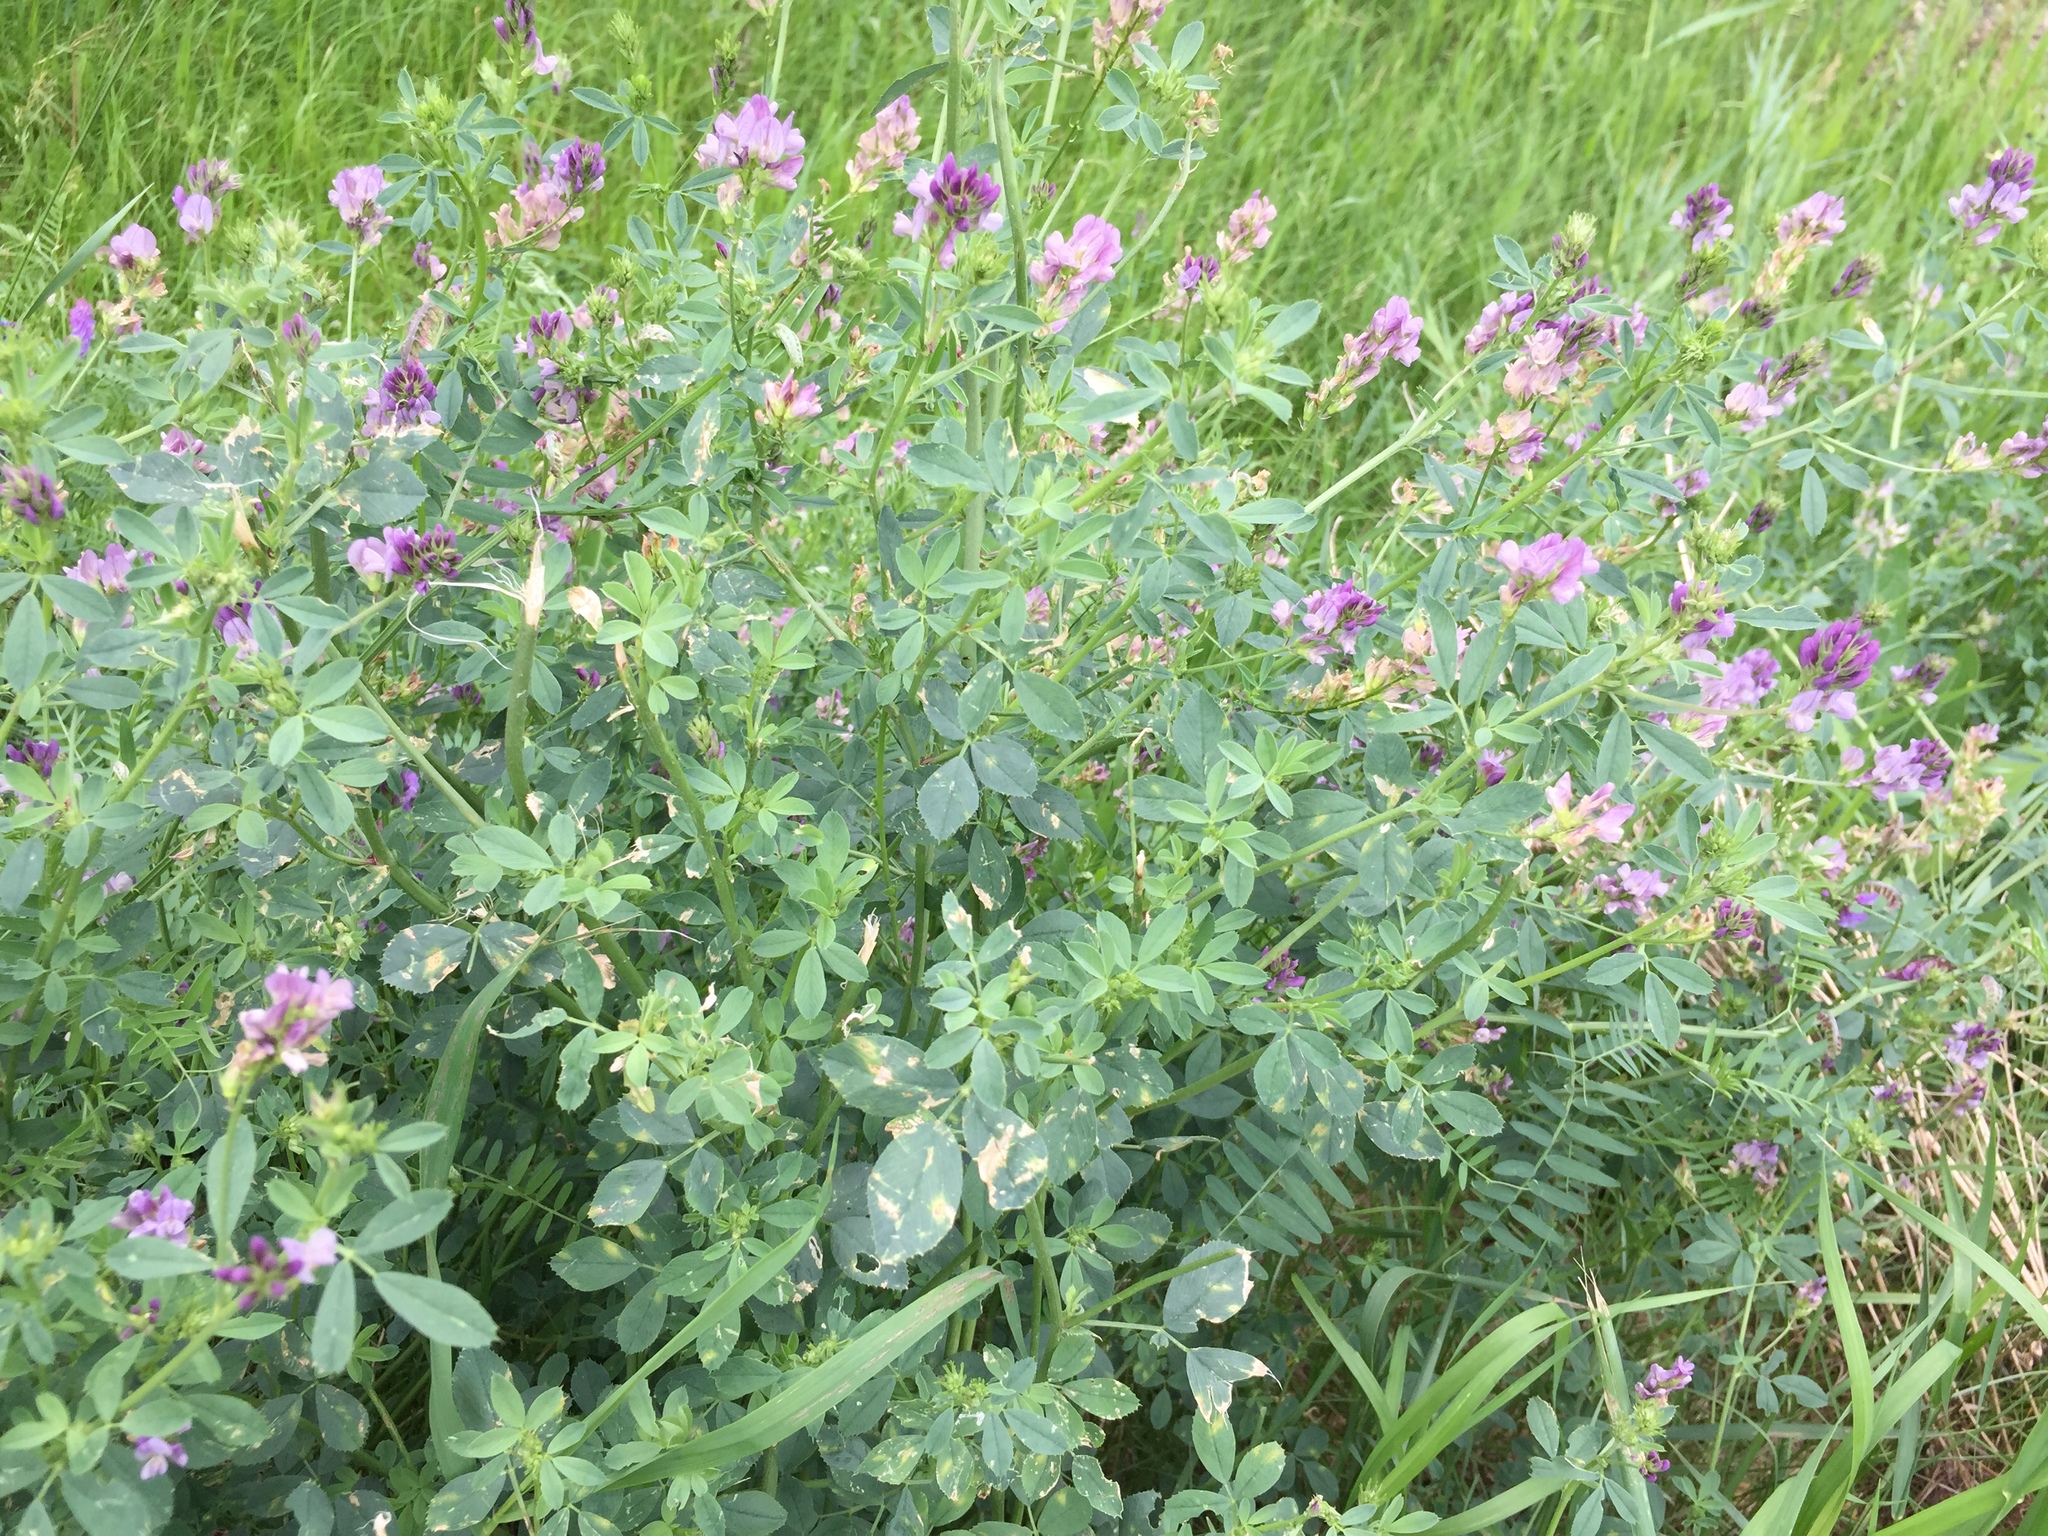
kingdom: Plantae
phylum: Tracheophyta
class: Magnoliopsida
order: Fabales
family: Fabaceae
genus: Medicago
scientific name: Medicago sativa
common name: Alfalfa
